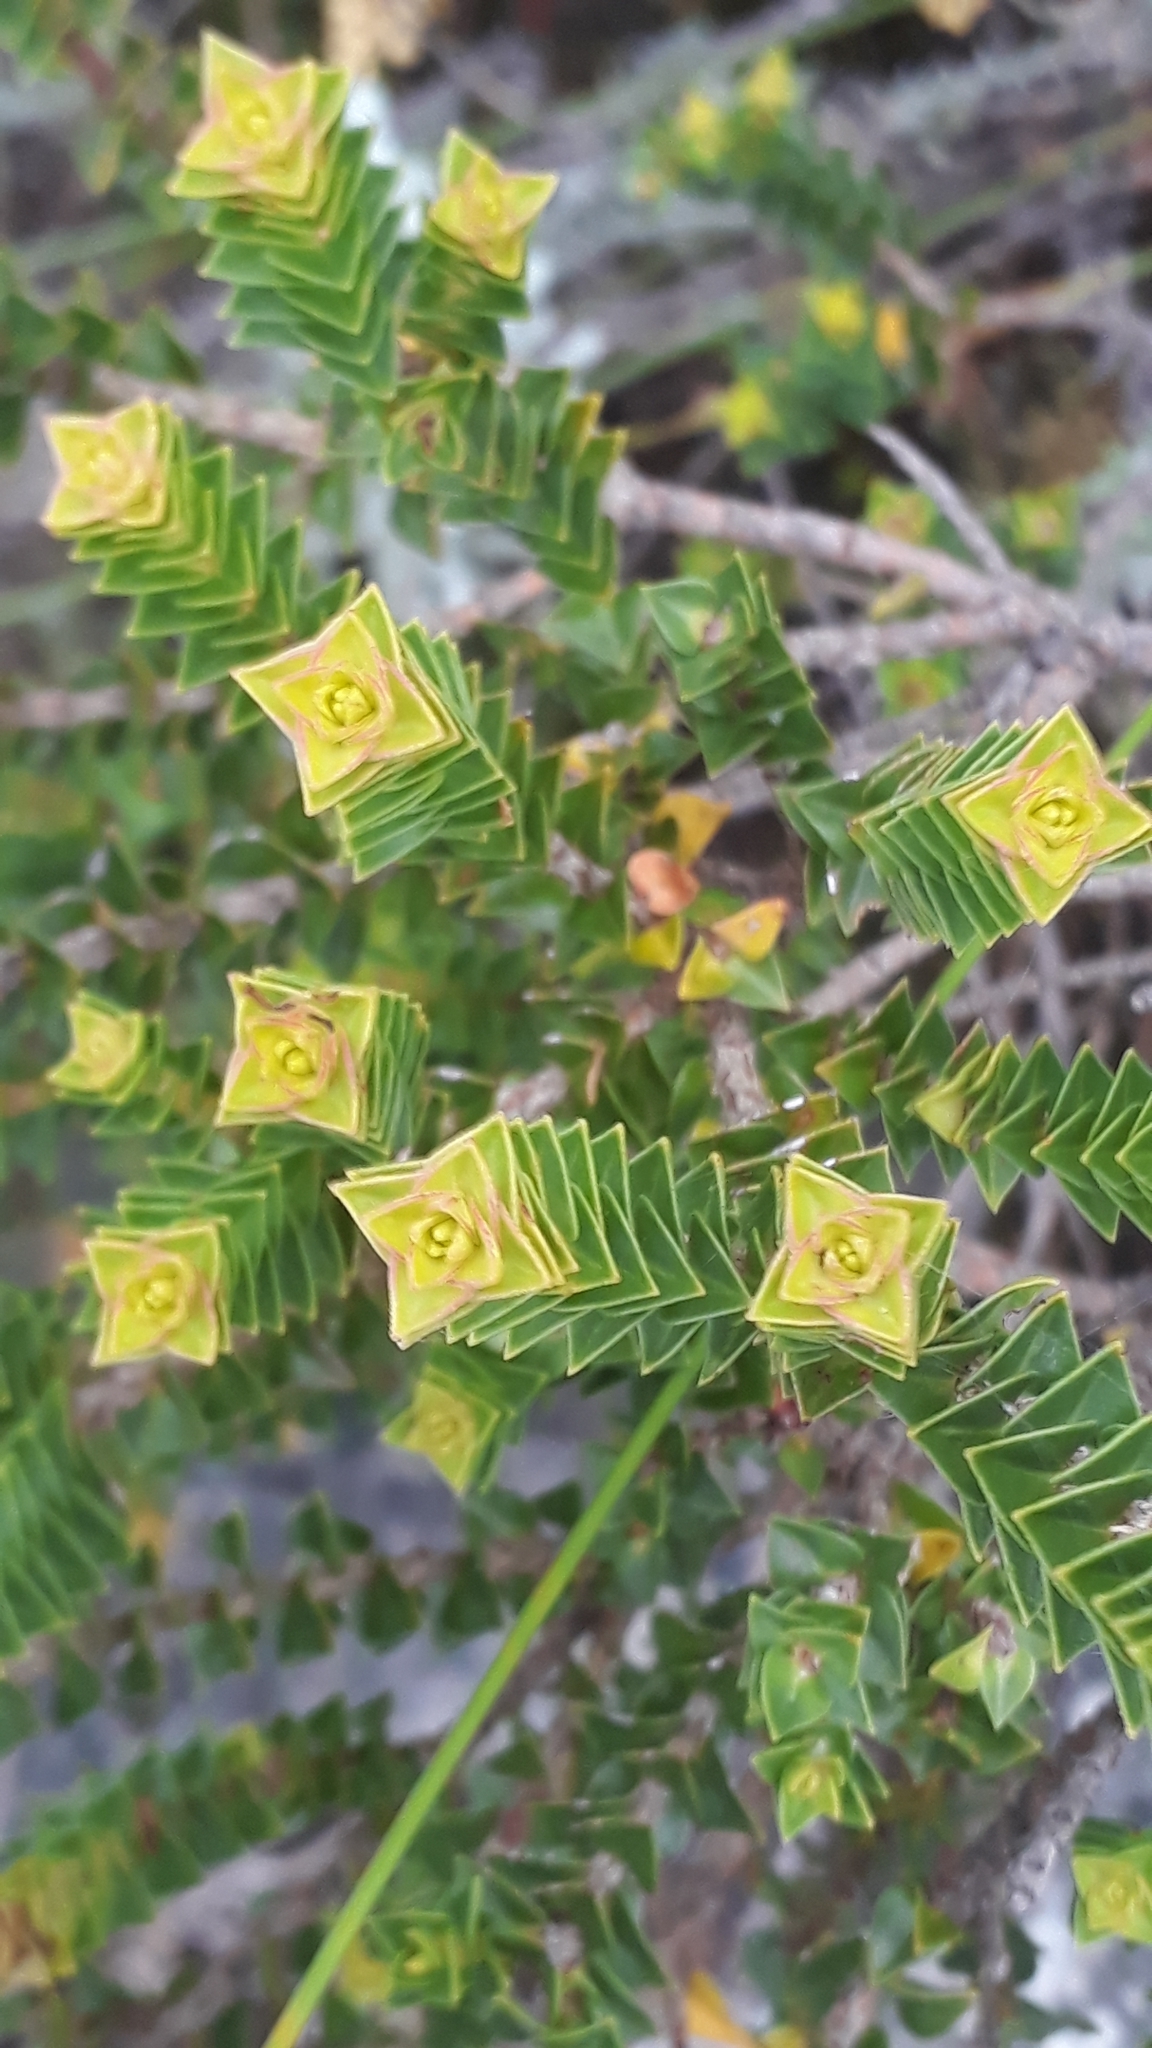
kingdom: Plantae
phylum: Tracheophyta
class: Magnoliopsida
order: Myrtales
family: Penaeaceae
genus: Penaea
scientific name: Penaea mucronata
